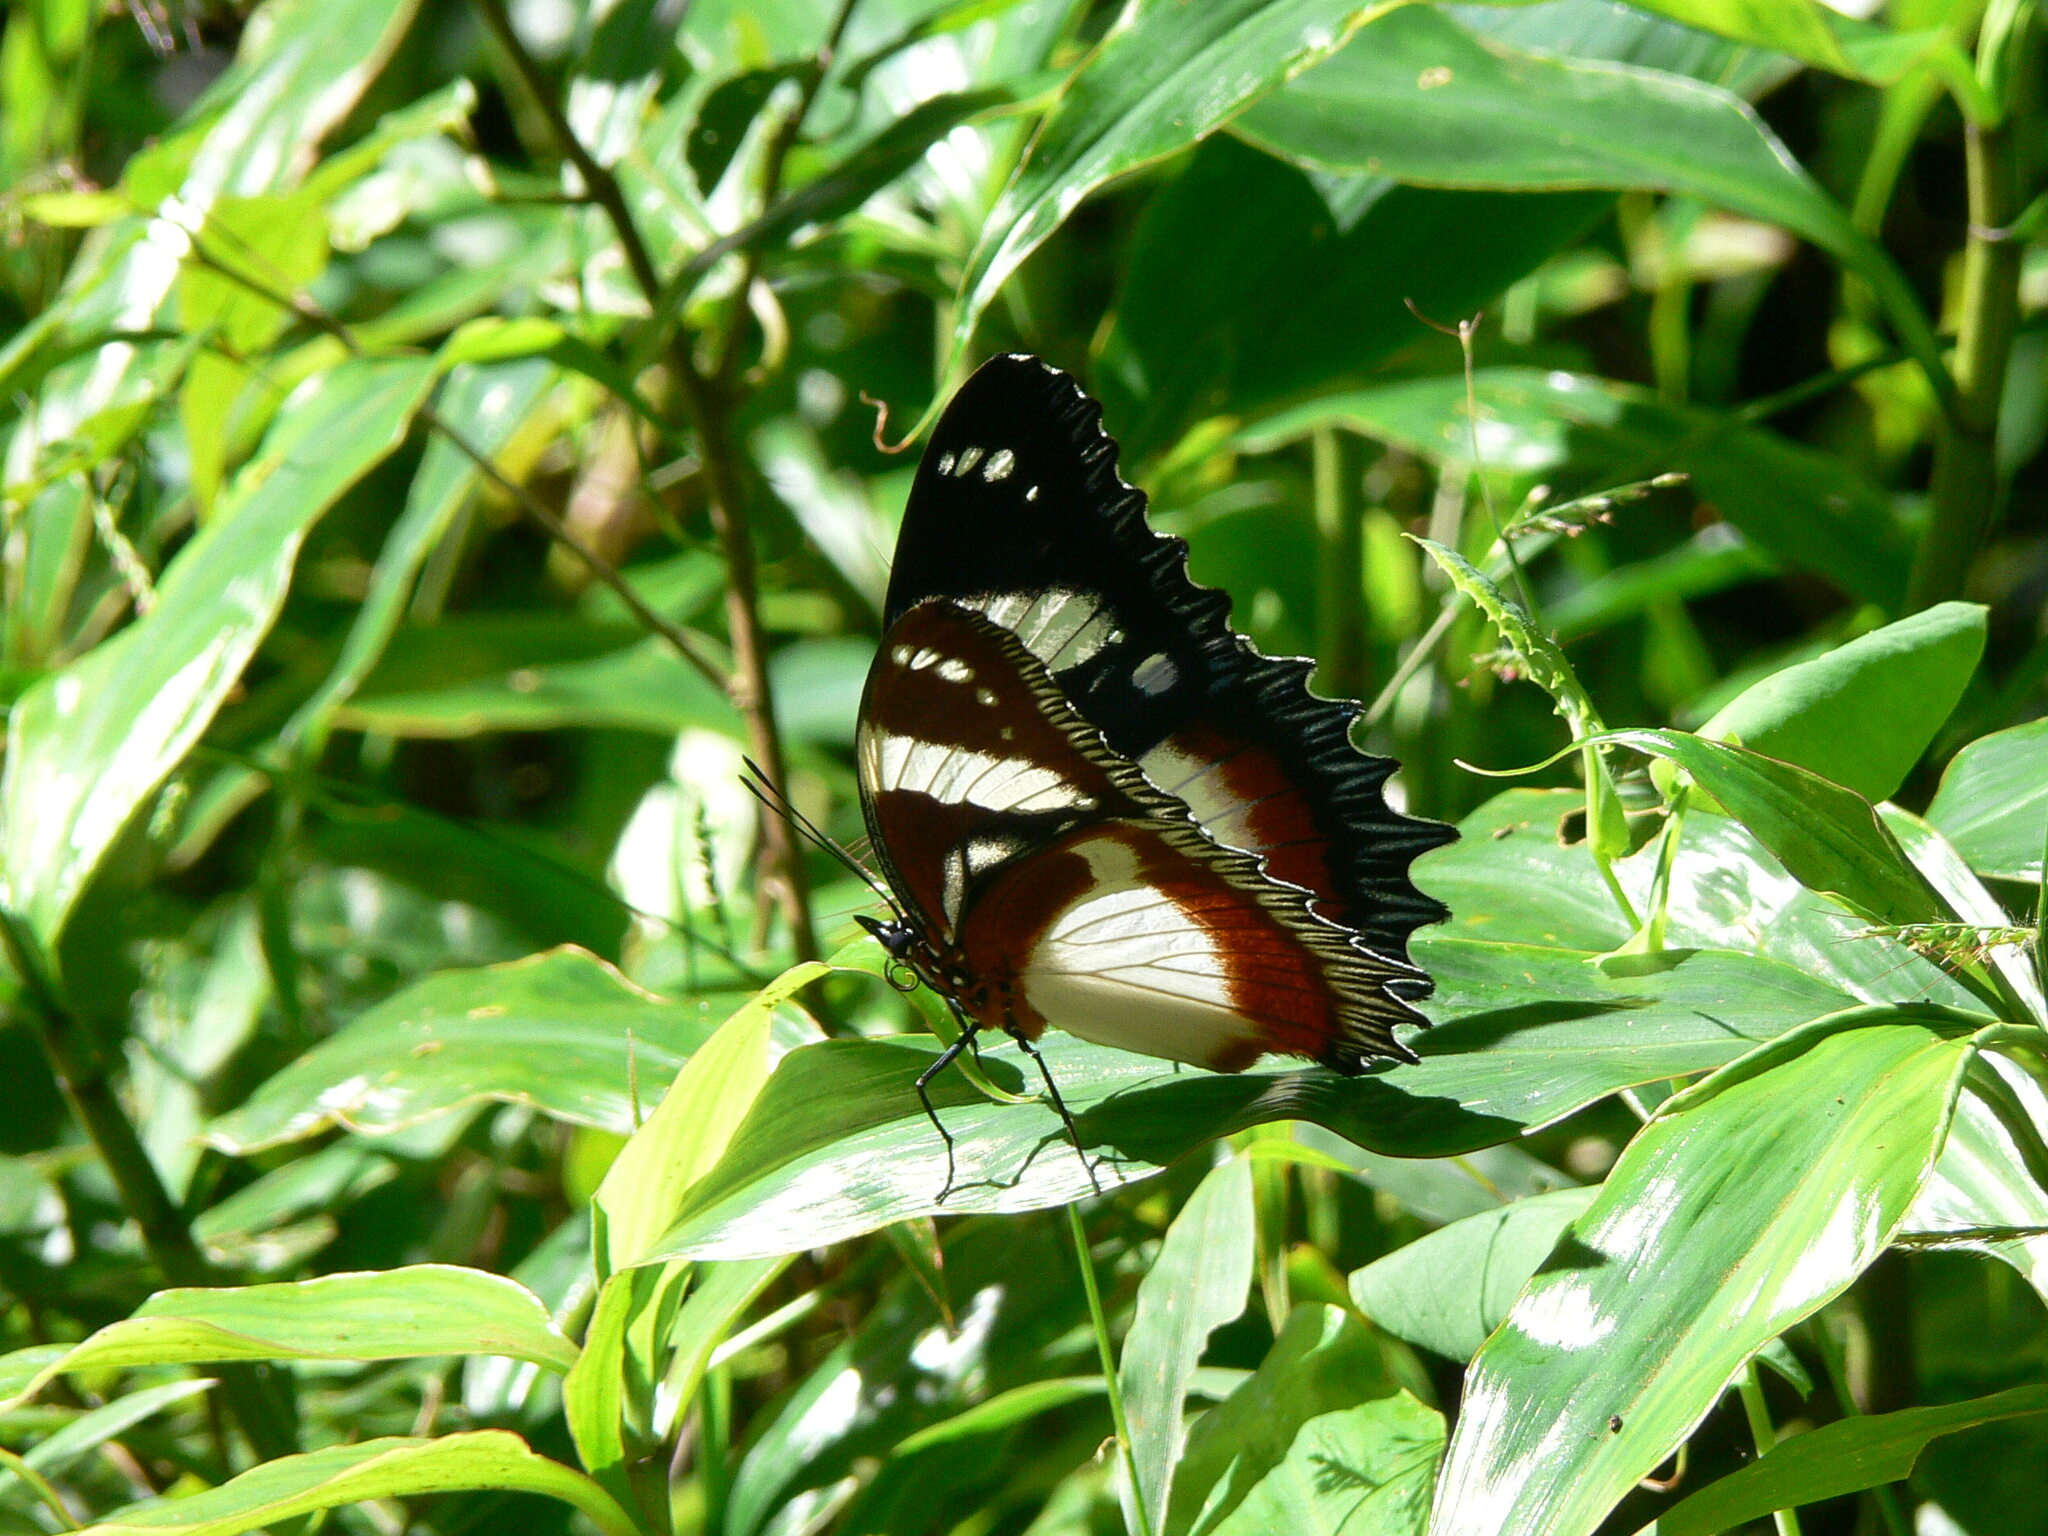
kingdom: Animalia
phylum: Arthropoda
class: Insecta
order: Lepidoptera
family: Nymphalidae
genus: Hypolimnas
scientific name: Hypolimnas dexithea
